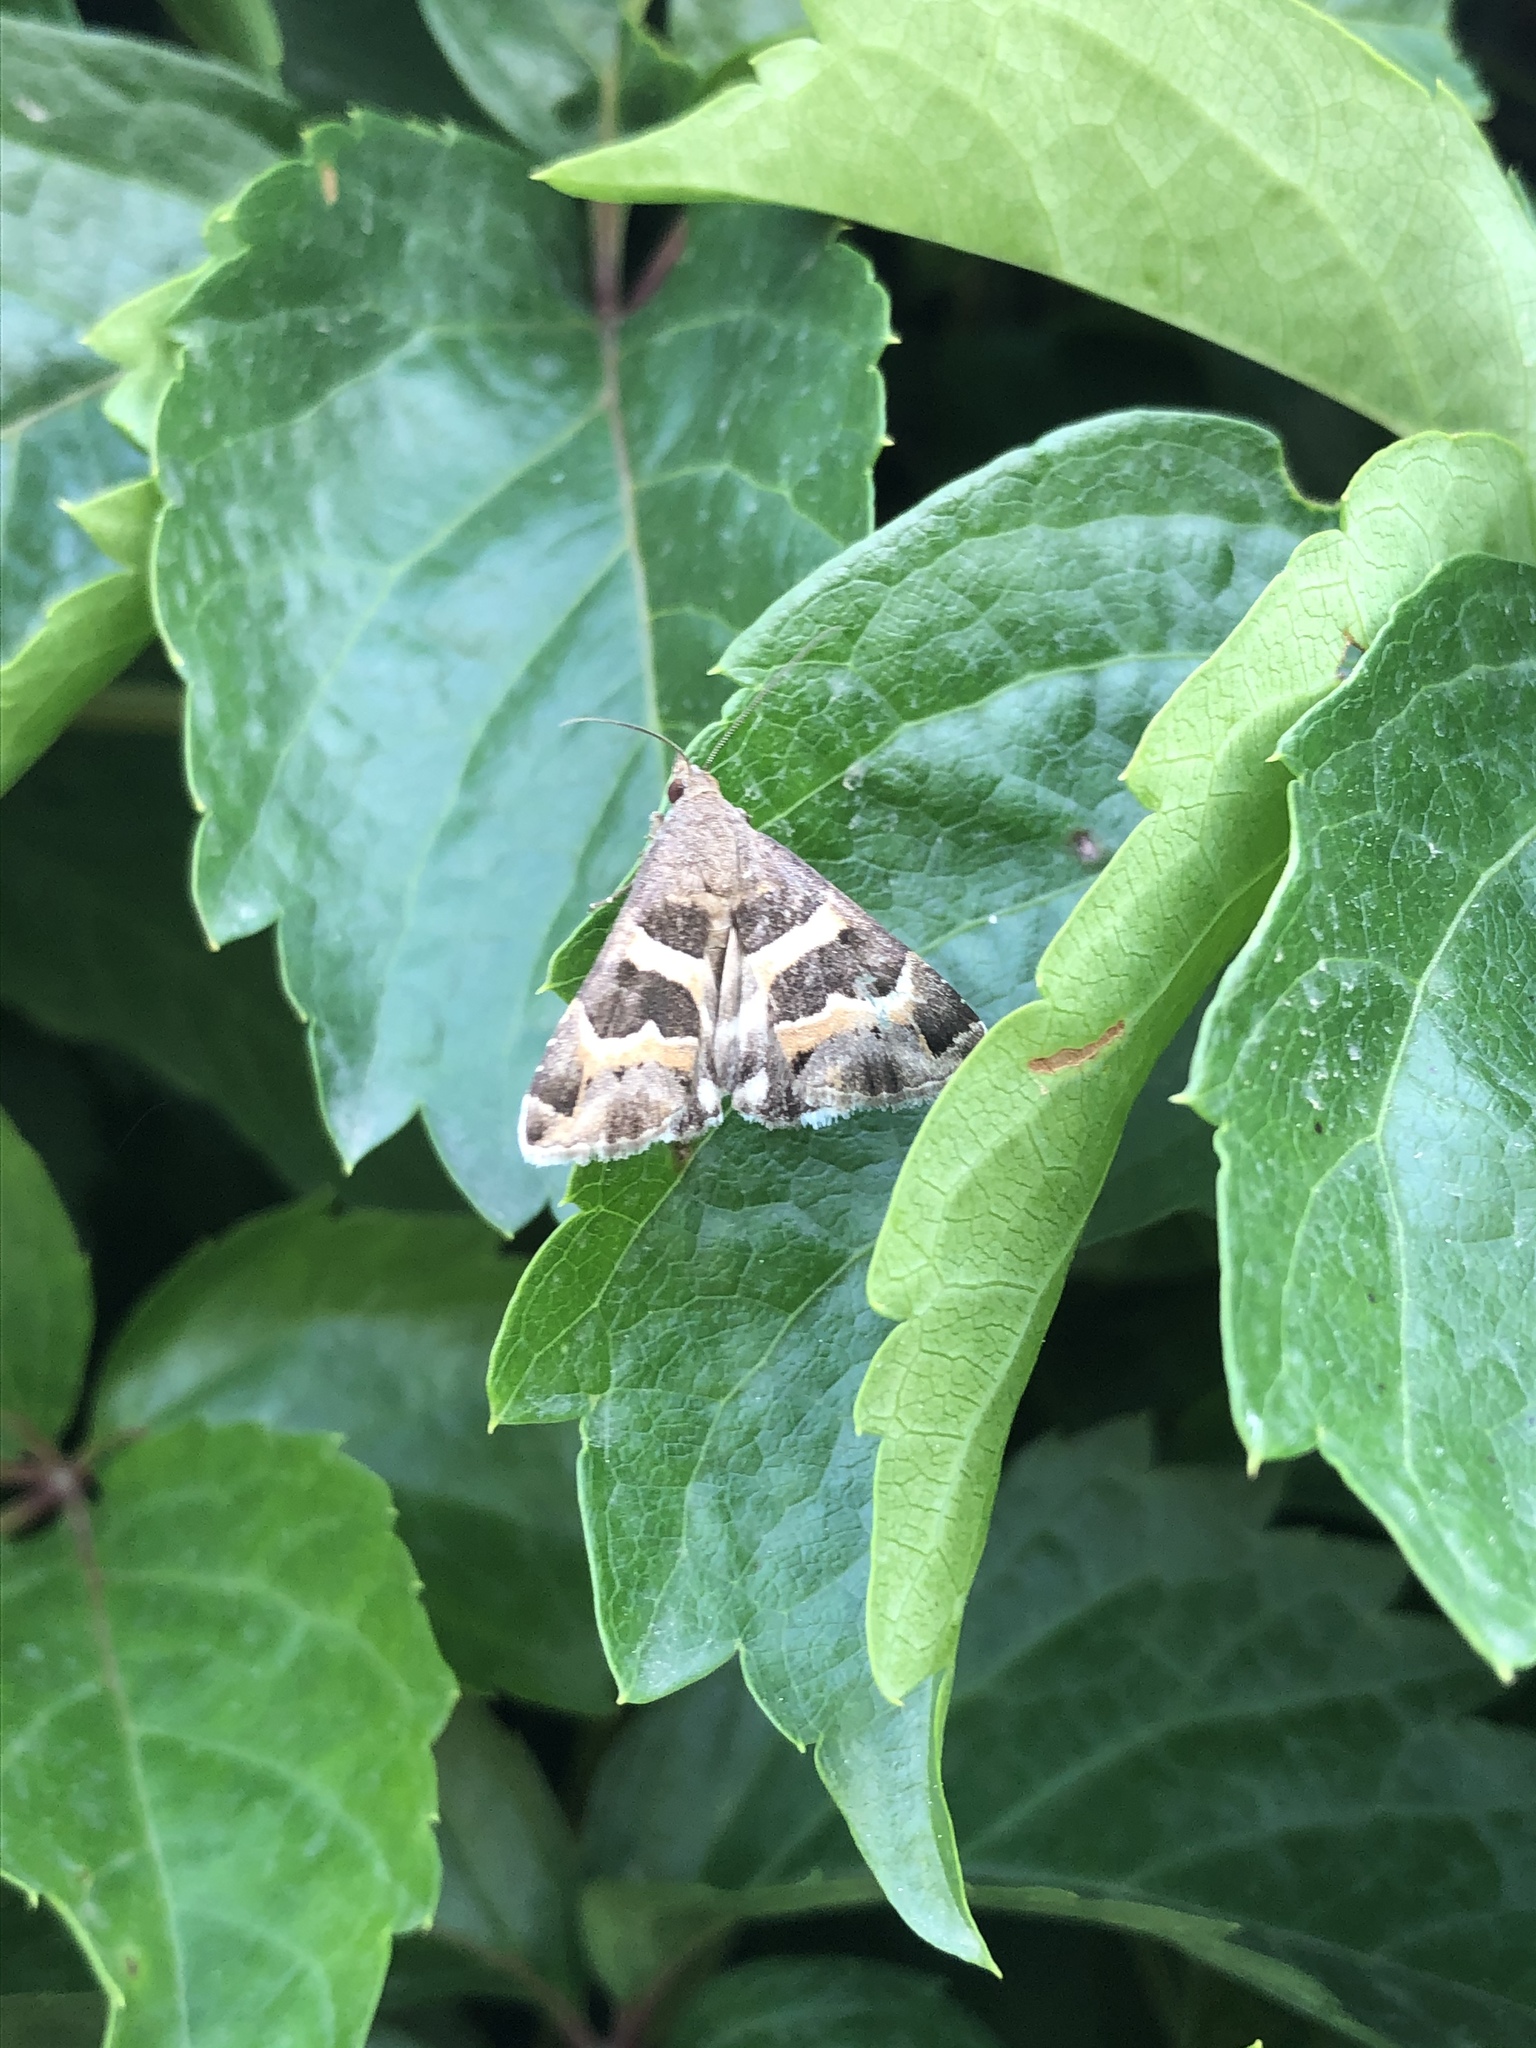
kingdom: Animalia
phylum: Arthropoda
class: Insecta
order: Lepidoptera
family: Erebidae
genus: Grammodes
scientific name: Grammodes stolida
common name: Geometrician
